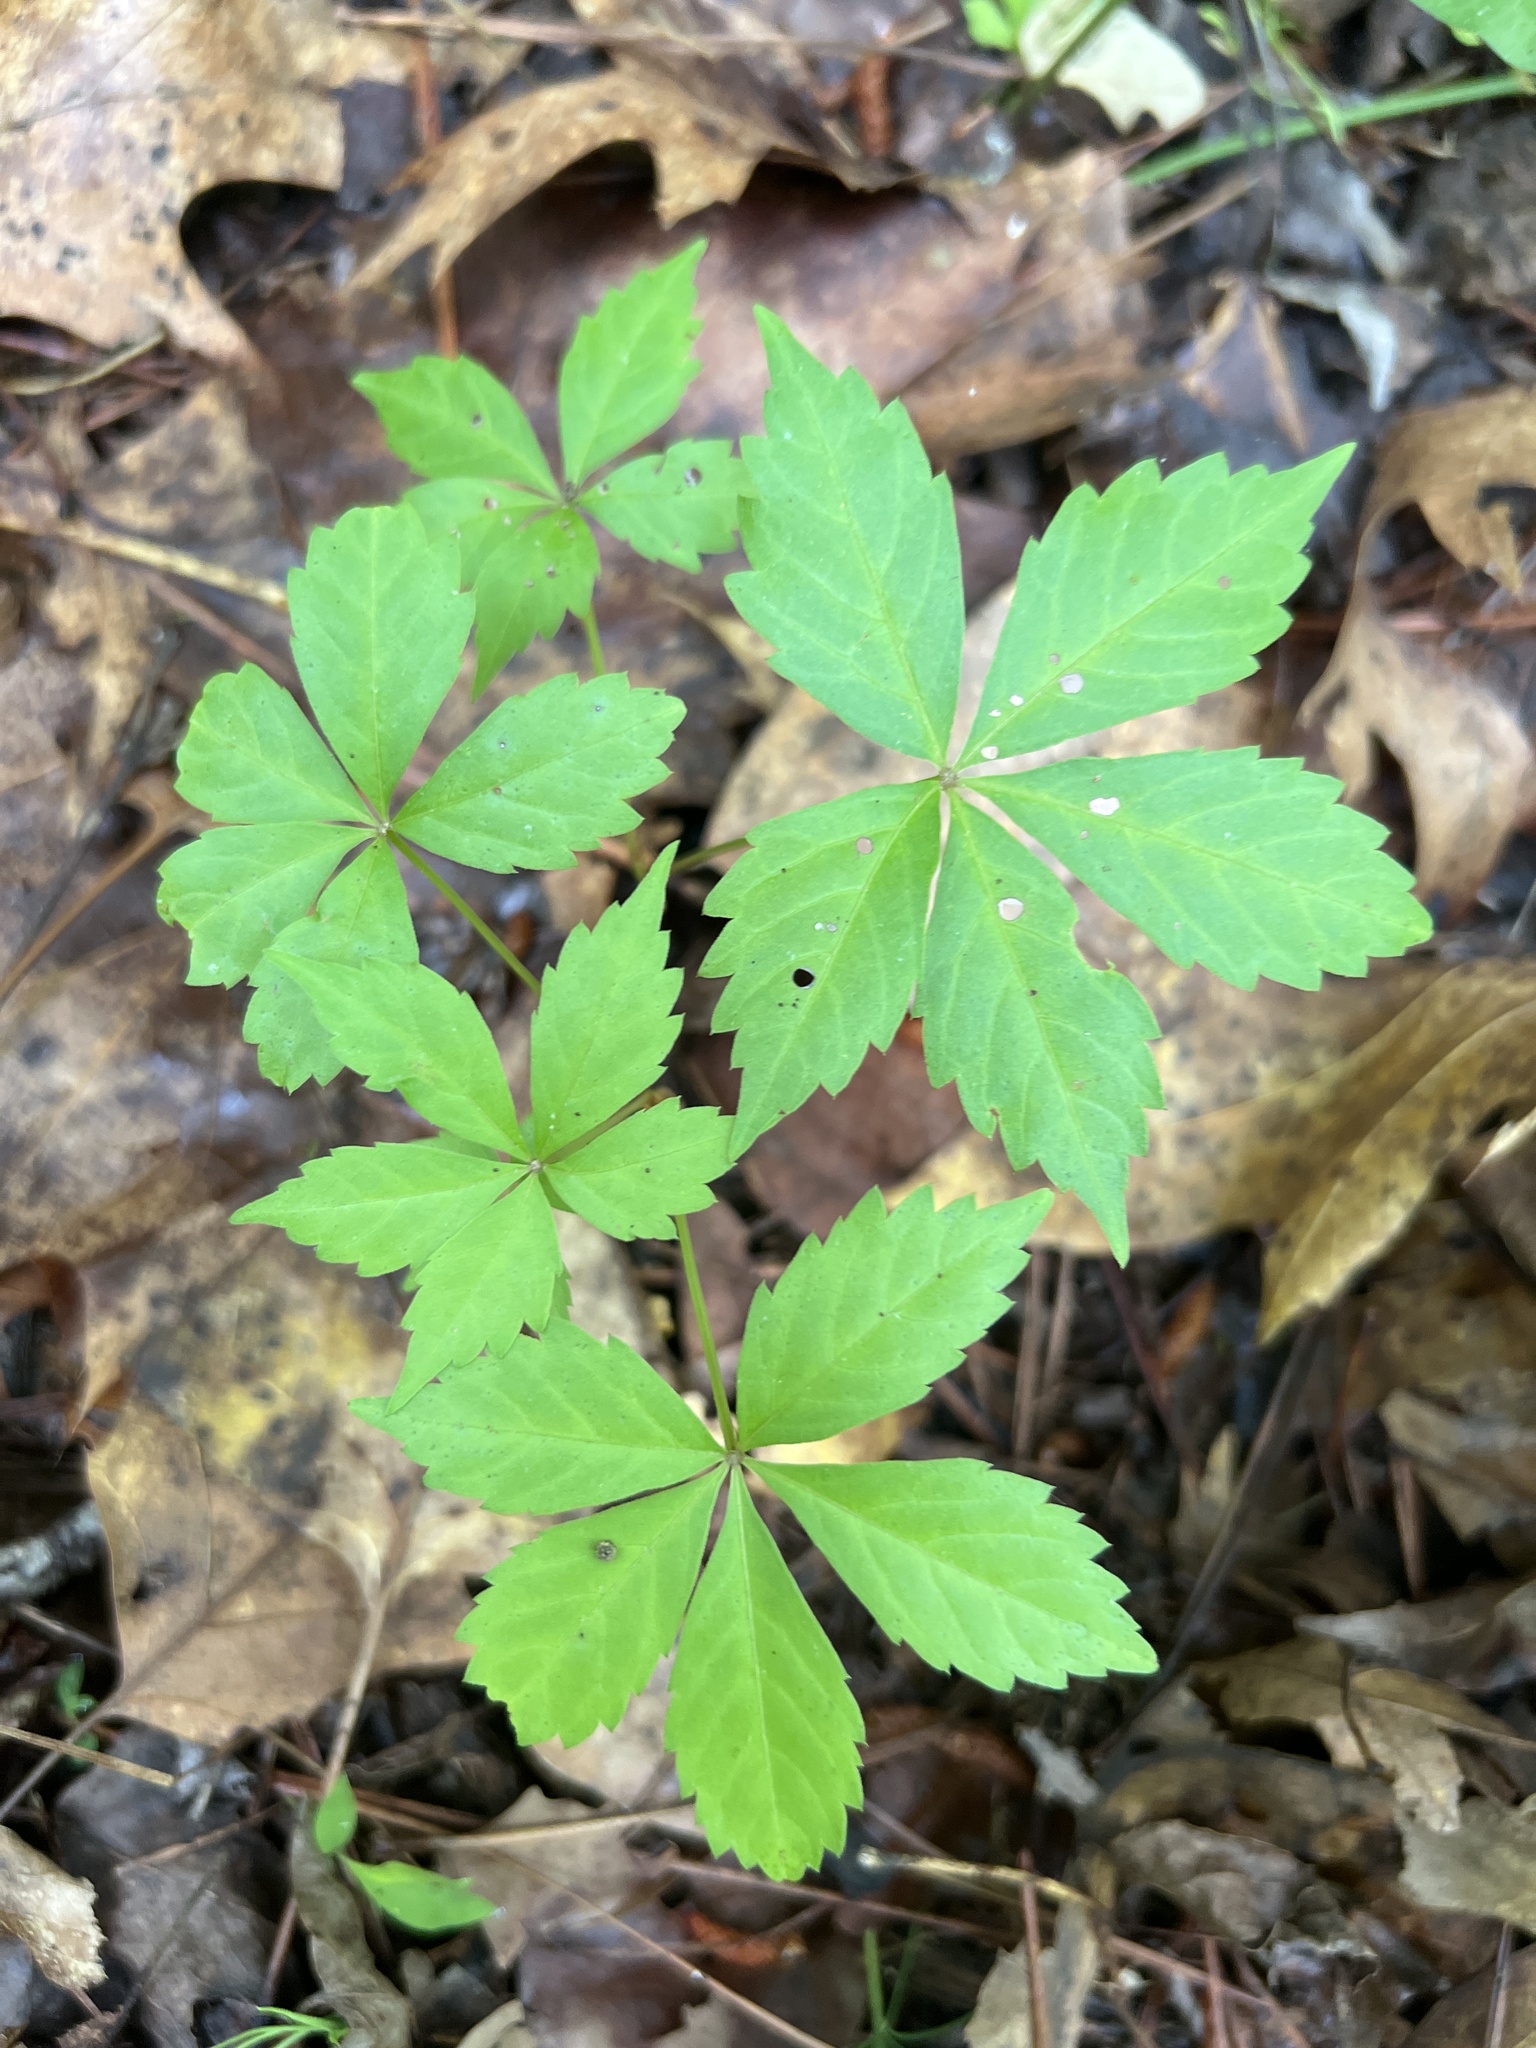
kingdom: Plantae
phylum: Tracheophyta
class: Magnoliopsida
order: Vitales
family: Vitaceae
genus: Parthenocissus
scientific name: Parthenocissus quinquefolia
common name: Virginia-creeper
